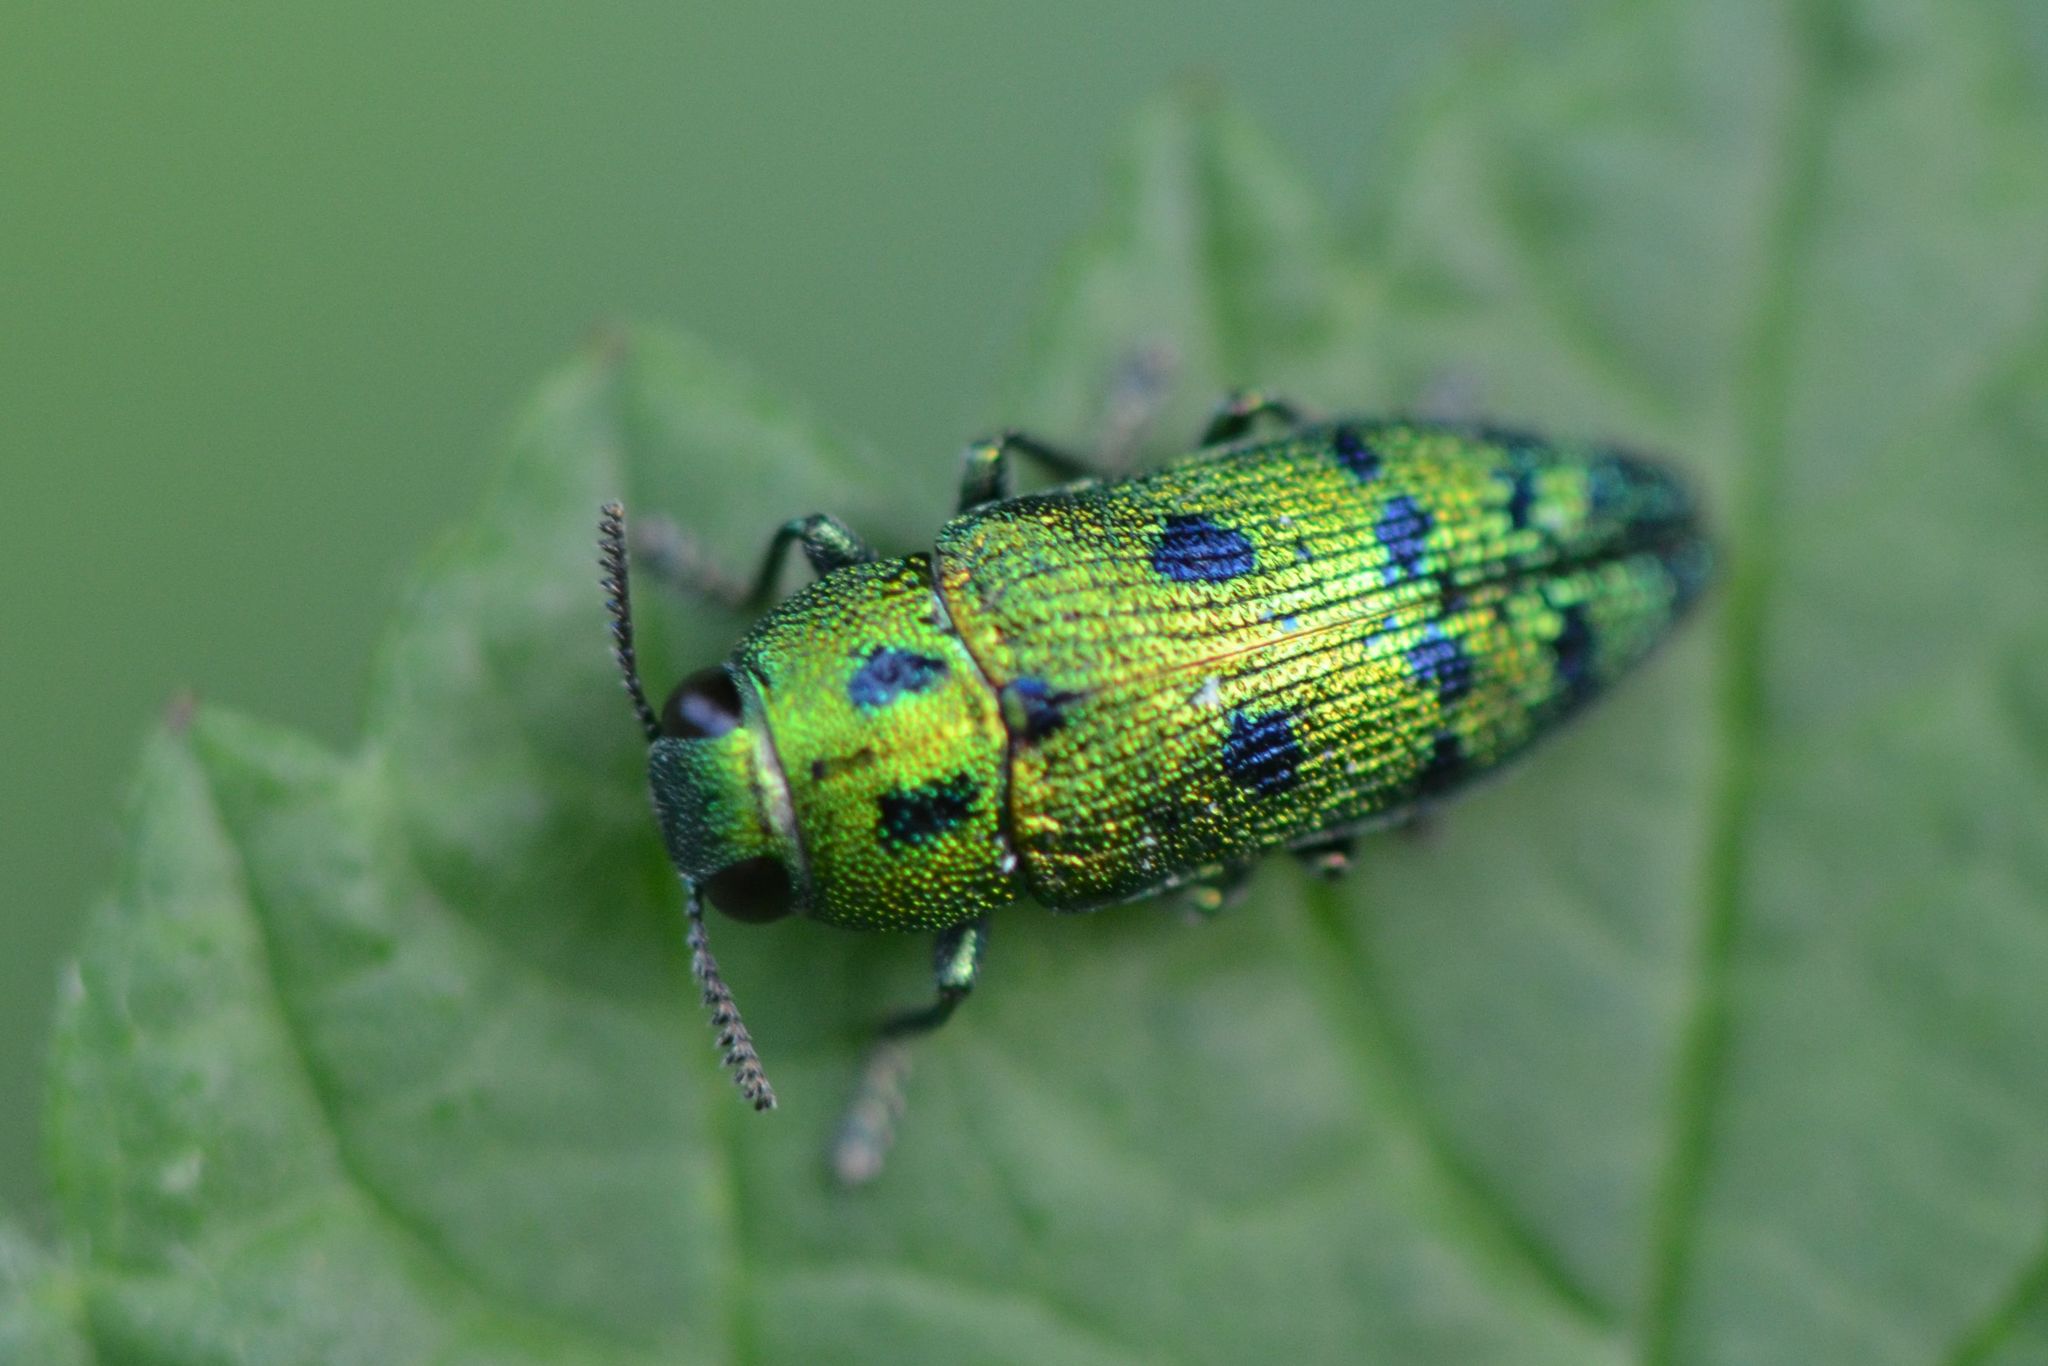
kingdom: Animalia
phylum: Arthropoda
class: Insecta
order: Coleoptera
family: Buprestidae
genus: Lamprodila
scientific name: Lamprodila festiva
